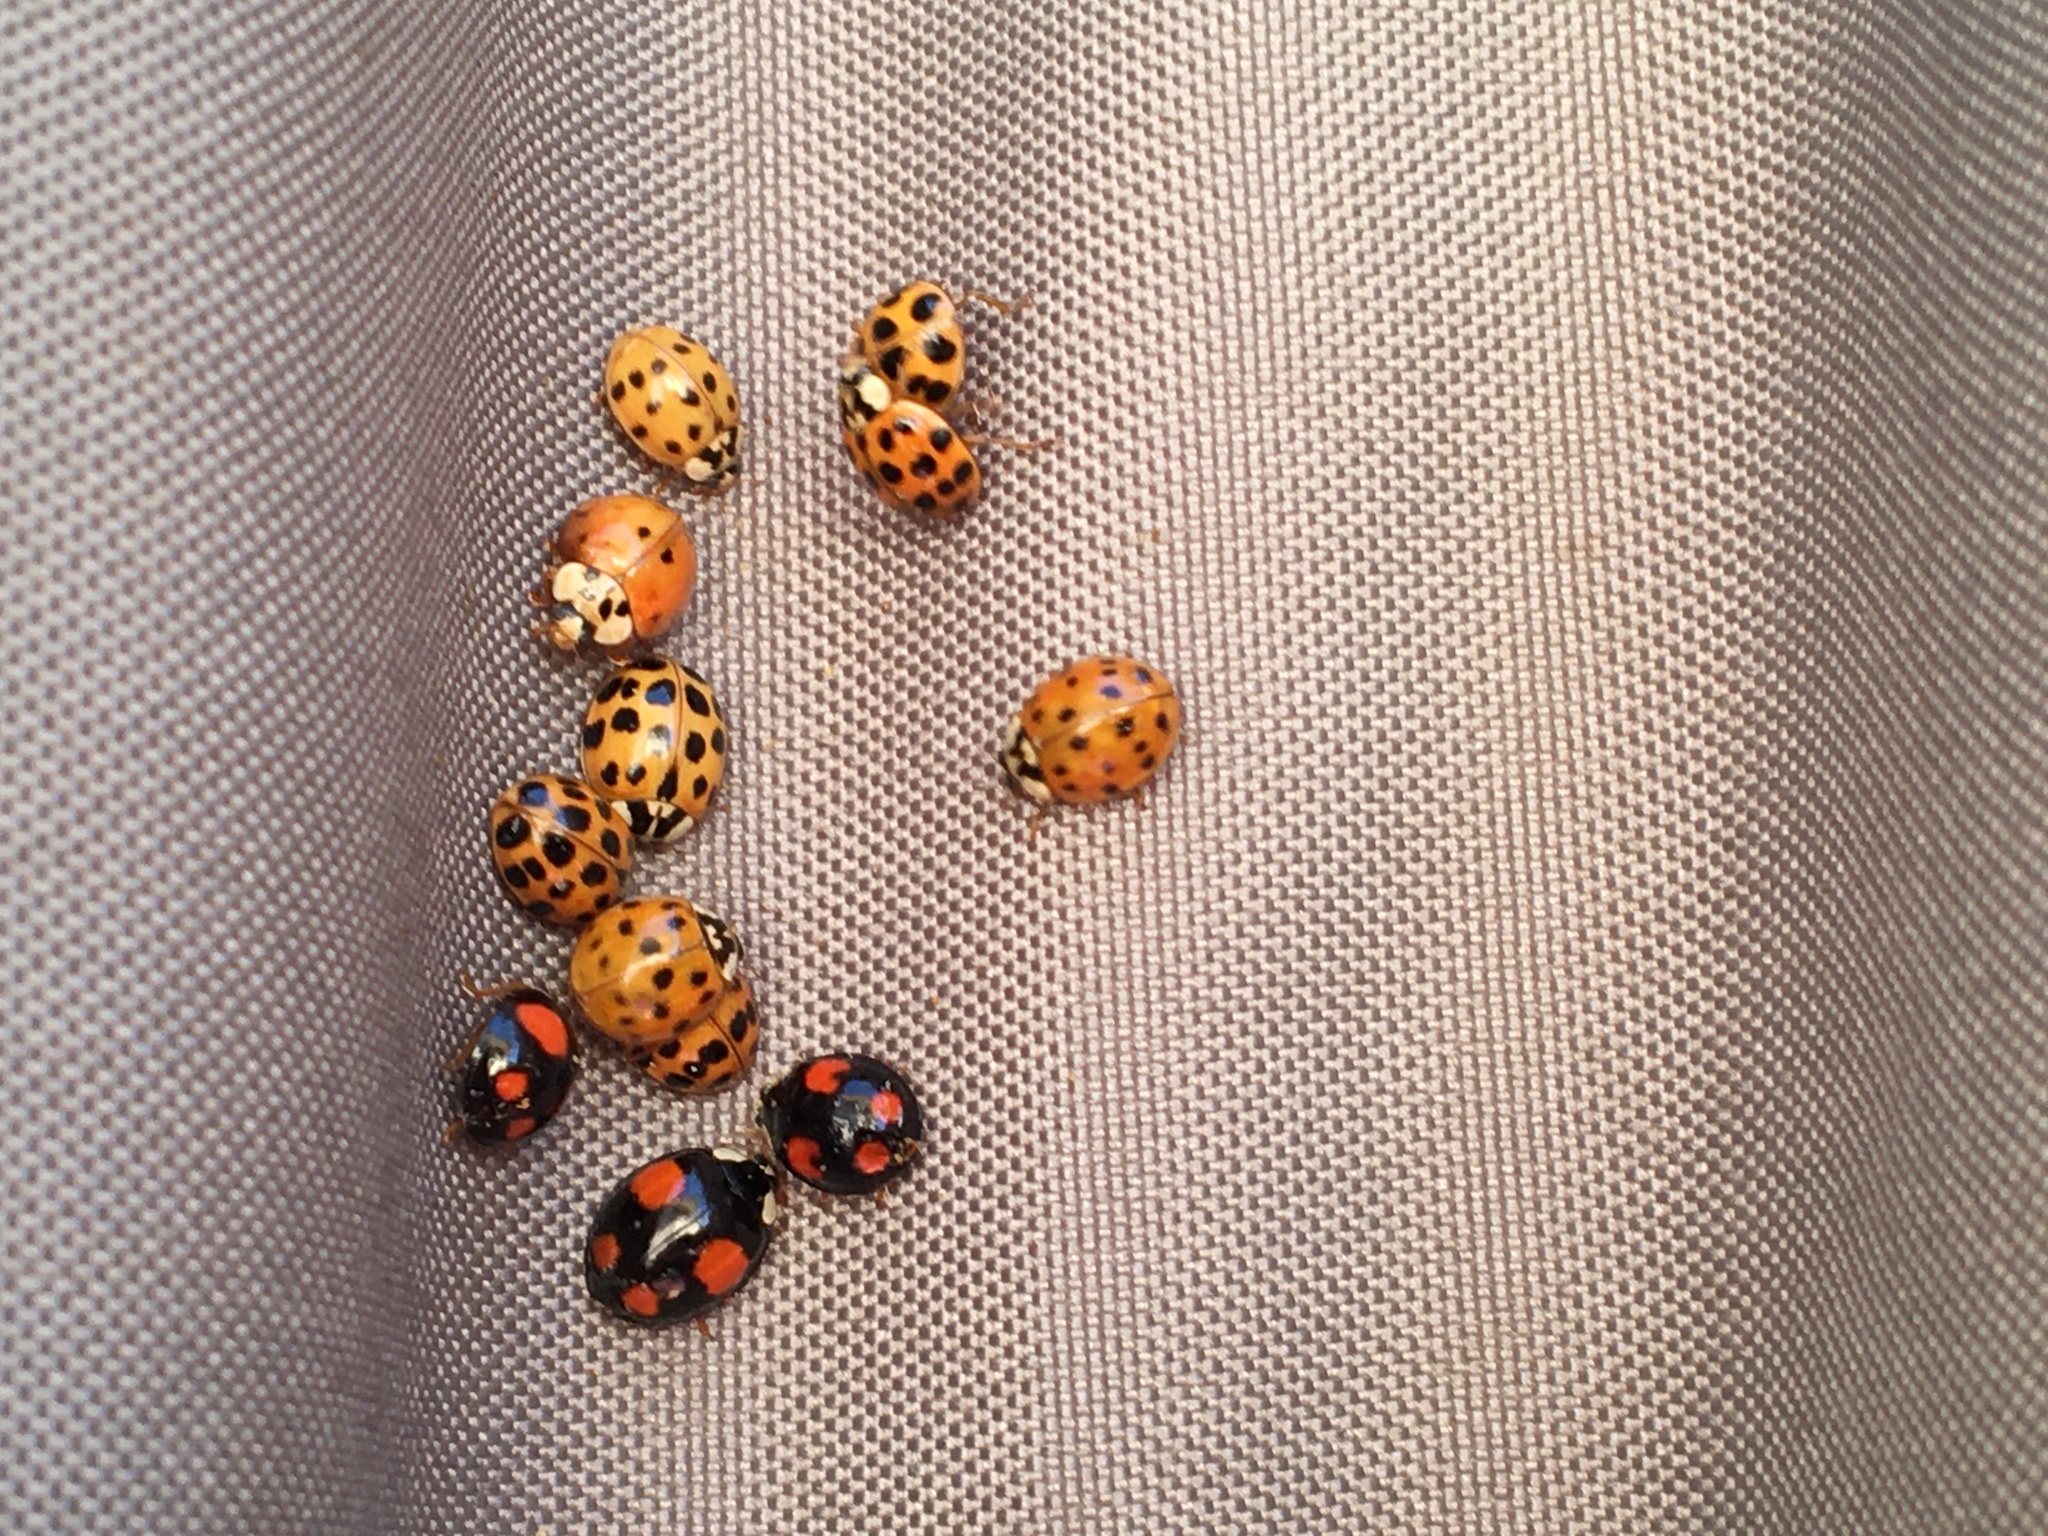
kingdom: Animalia
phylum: Arthropoda
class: Insecta
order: Coleoptera
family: Coccinellidae
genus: Harmonia
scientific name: Harmonia axyridis
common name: Harlequin ladybird
